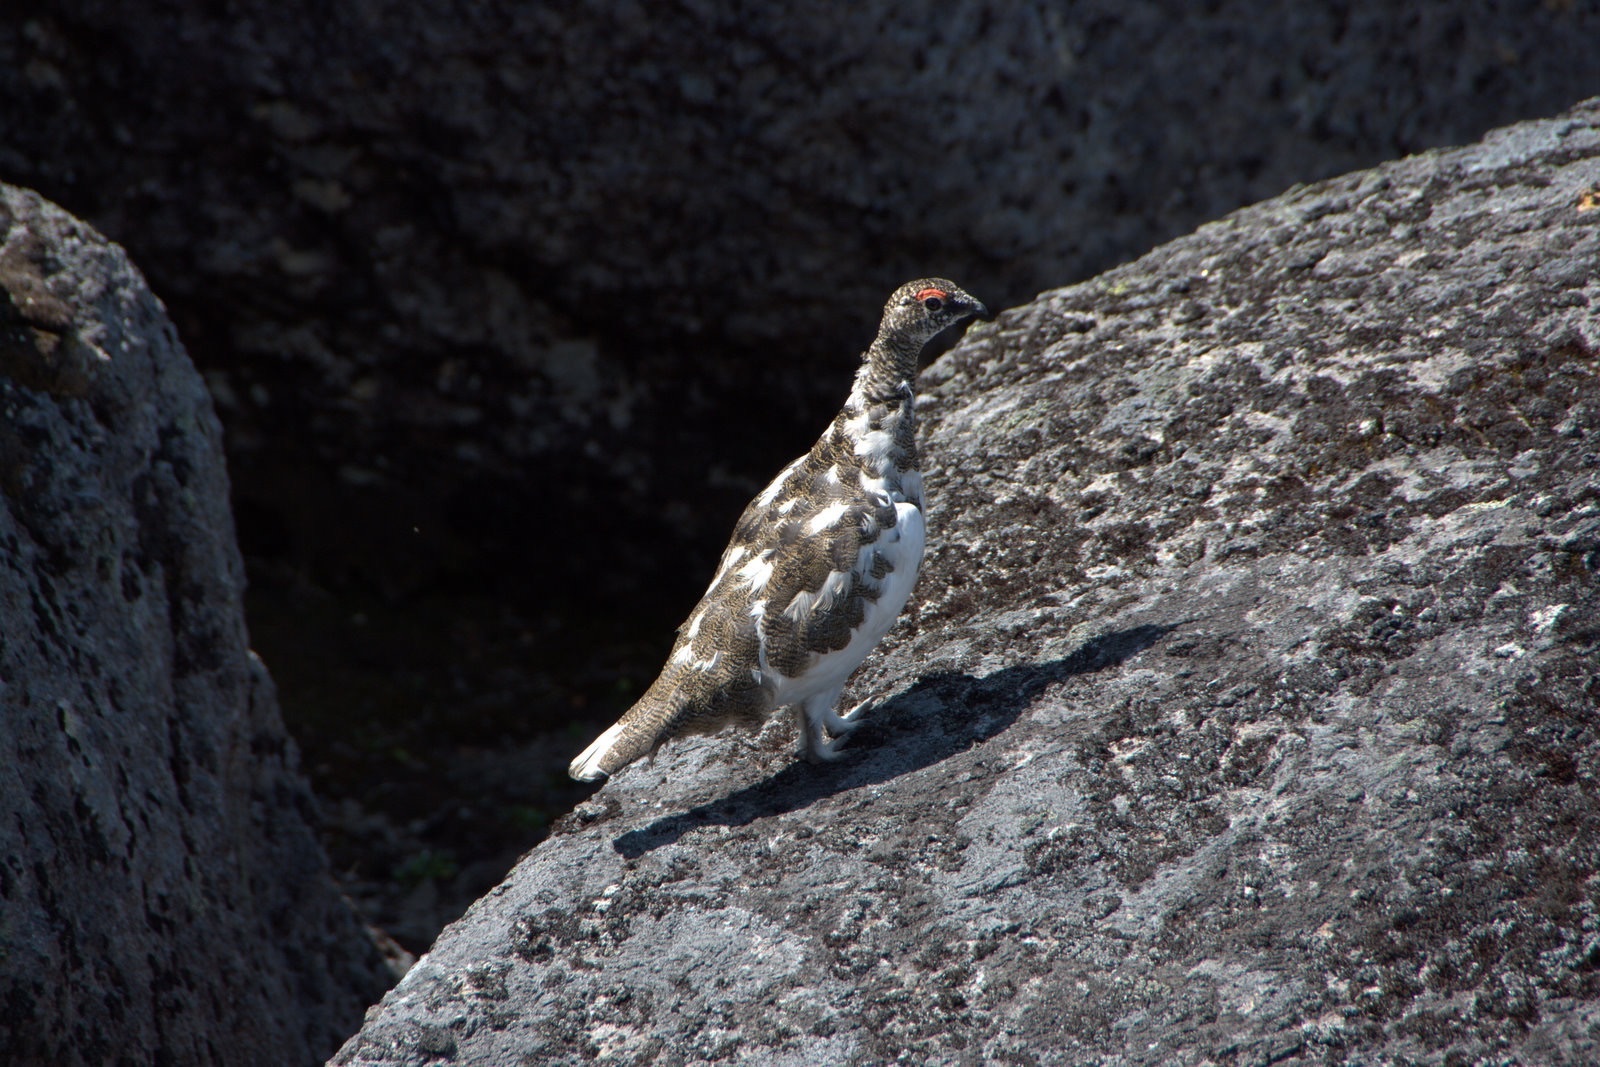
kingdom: Animalia
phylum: Chordata
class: Aves
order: Galliformes
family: Phasianidae
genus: Lagopus
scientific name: Lagopus muta
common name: Rock ptarmigan
